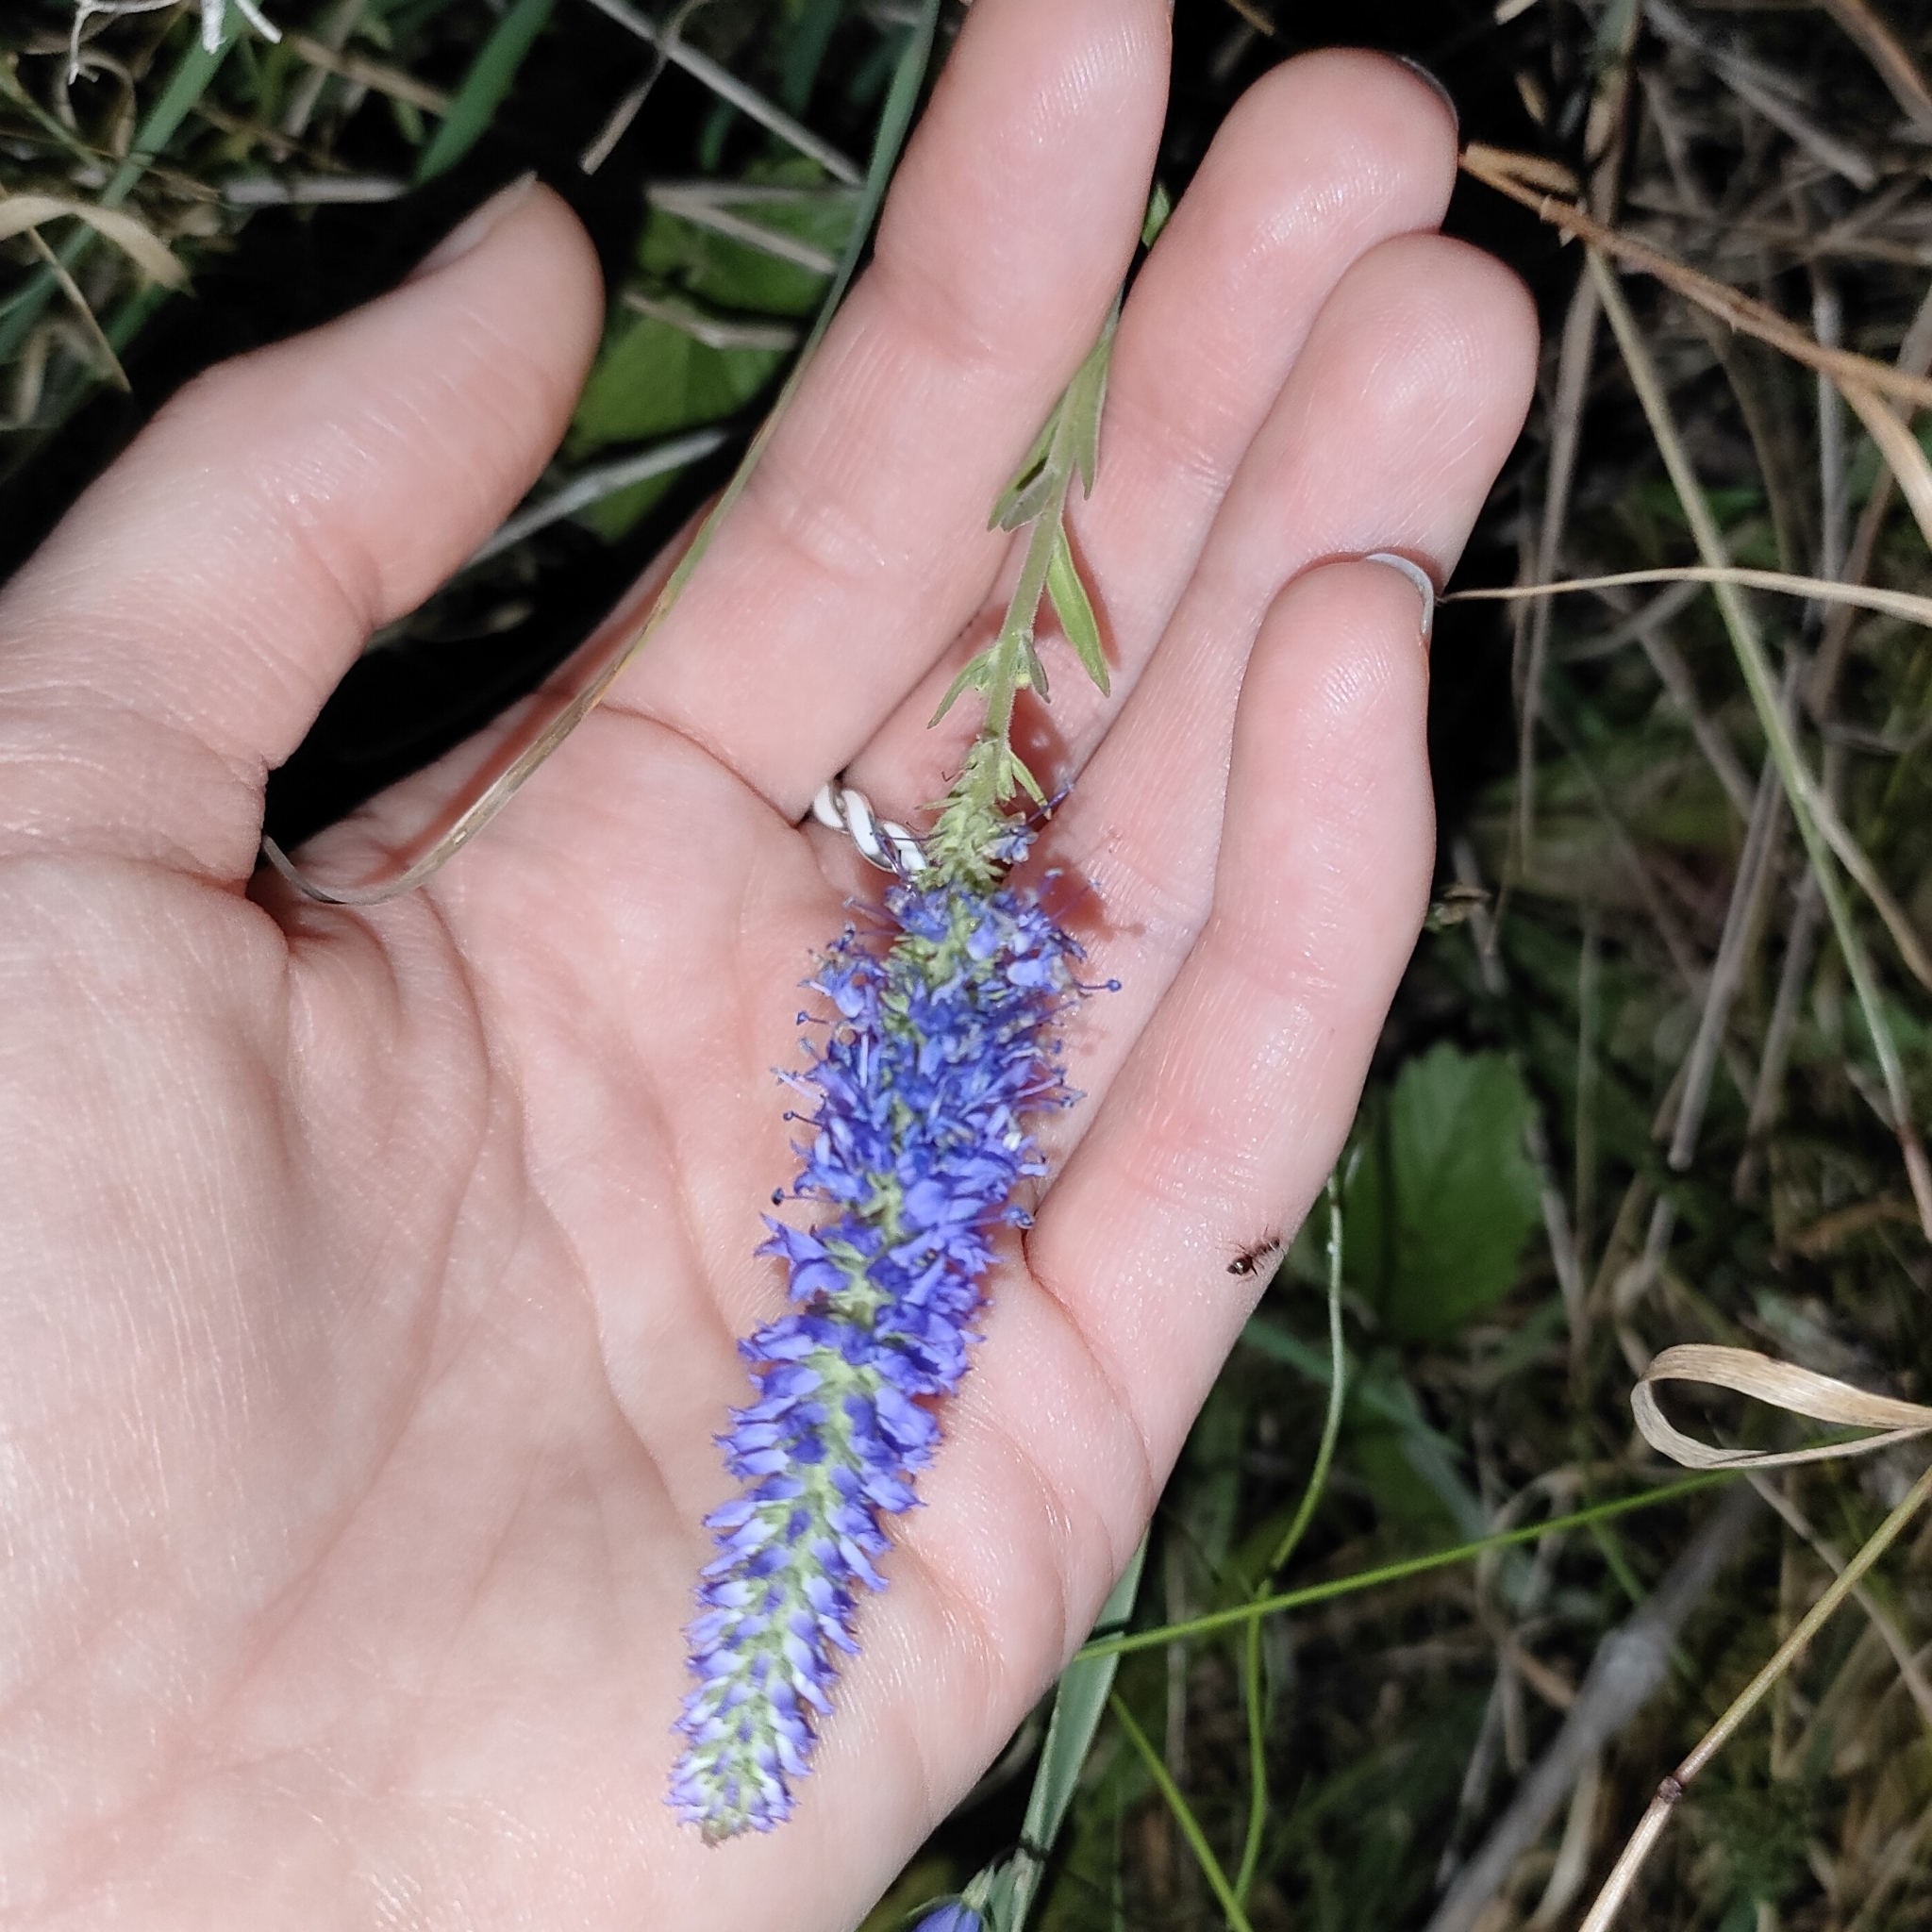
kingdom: Plantae
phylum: Tracheophyta
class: Magnoliopsida
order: Lamiales
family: Plantaginaceae
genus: Veronica
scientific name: Veronica spicata
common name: Spiked speedwell
